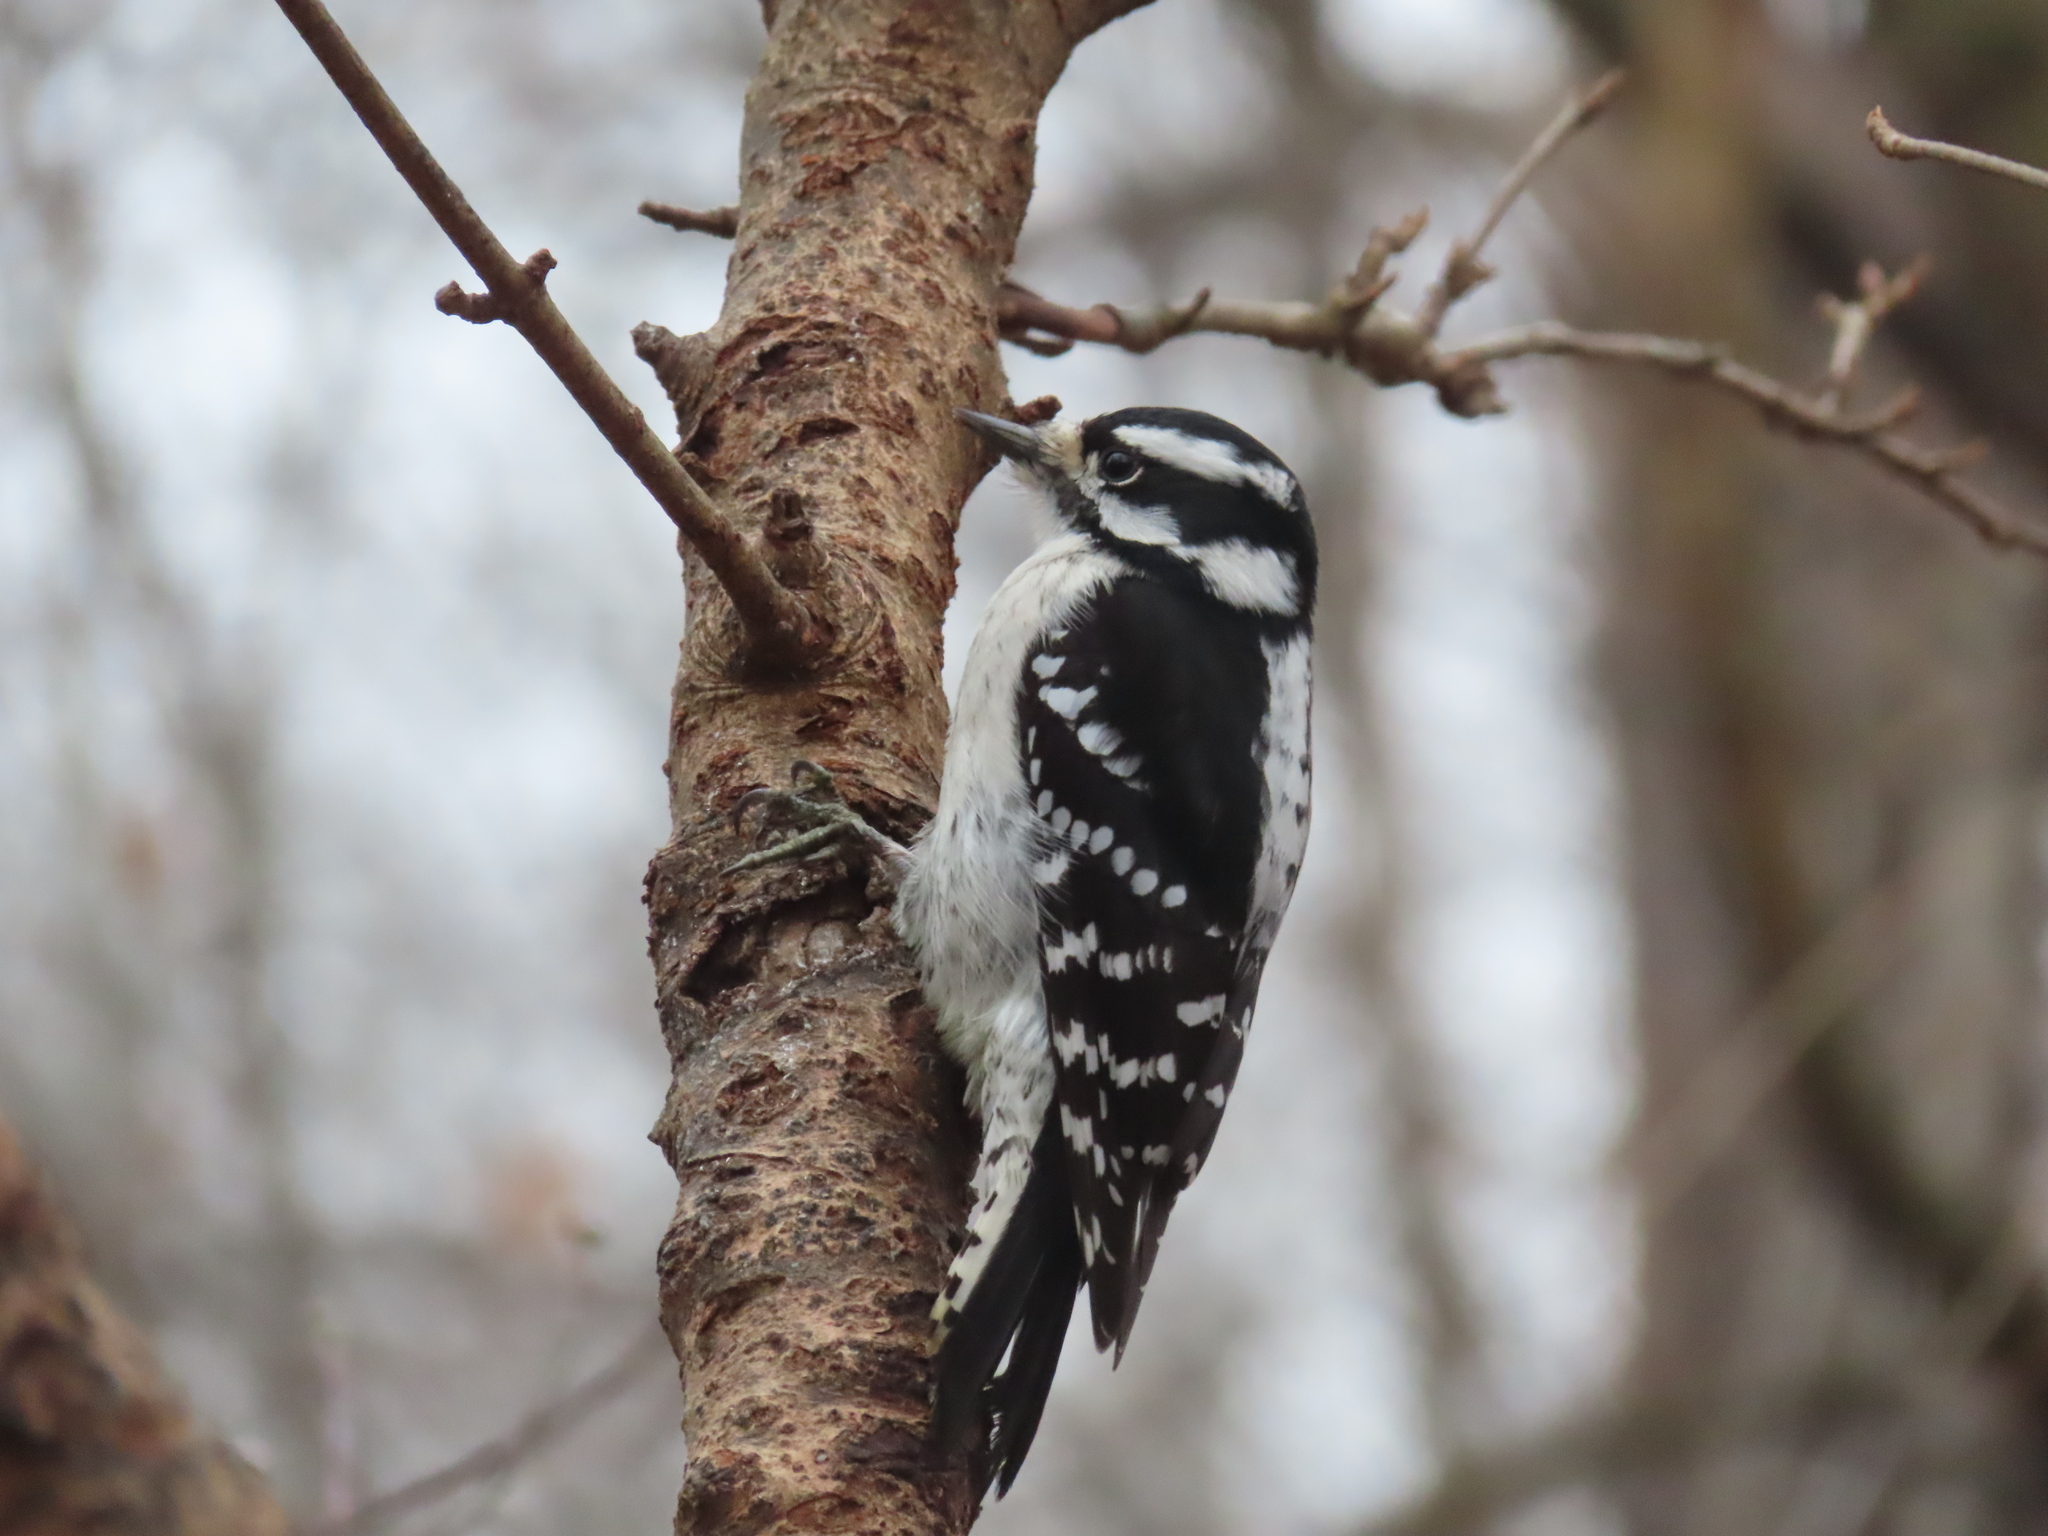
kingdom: Animalia
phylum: Chordata
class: Aves
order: Piciformes
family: Picidae
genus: Dryobates
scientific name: Dryobates pubescens
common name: Downy woodpecker
